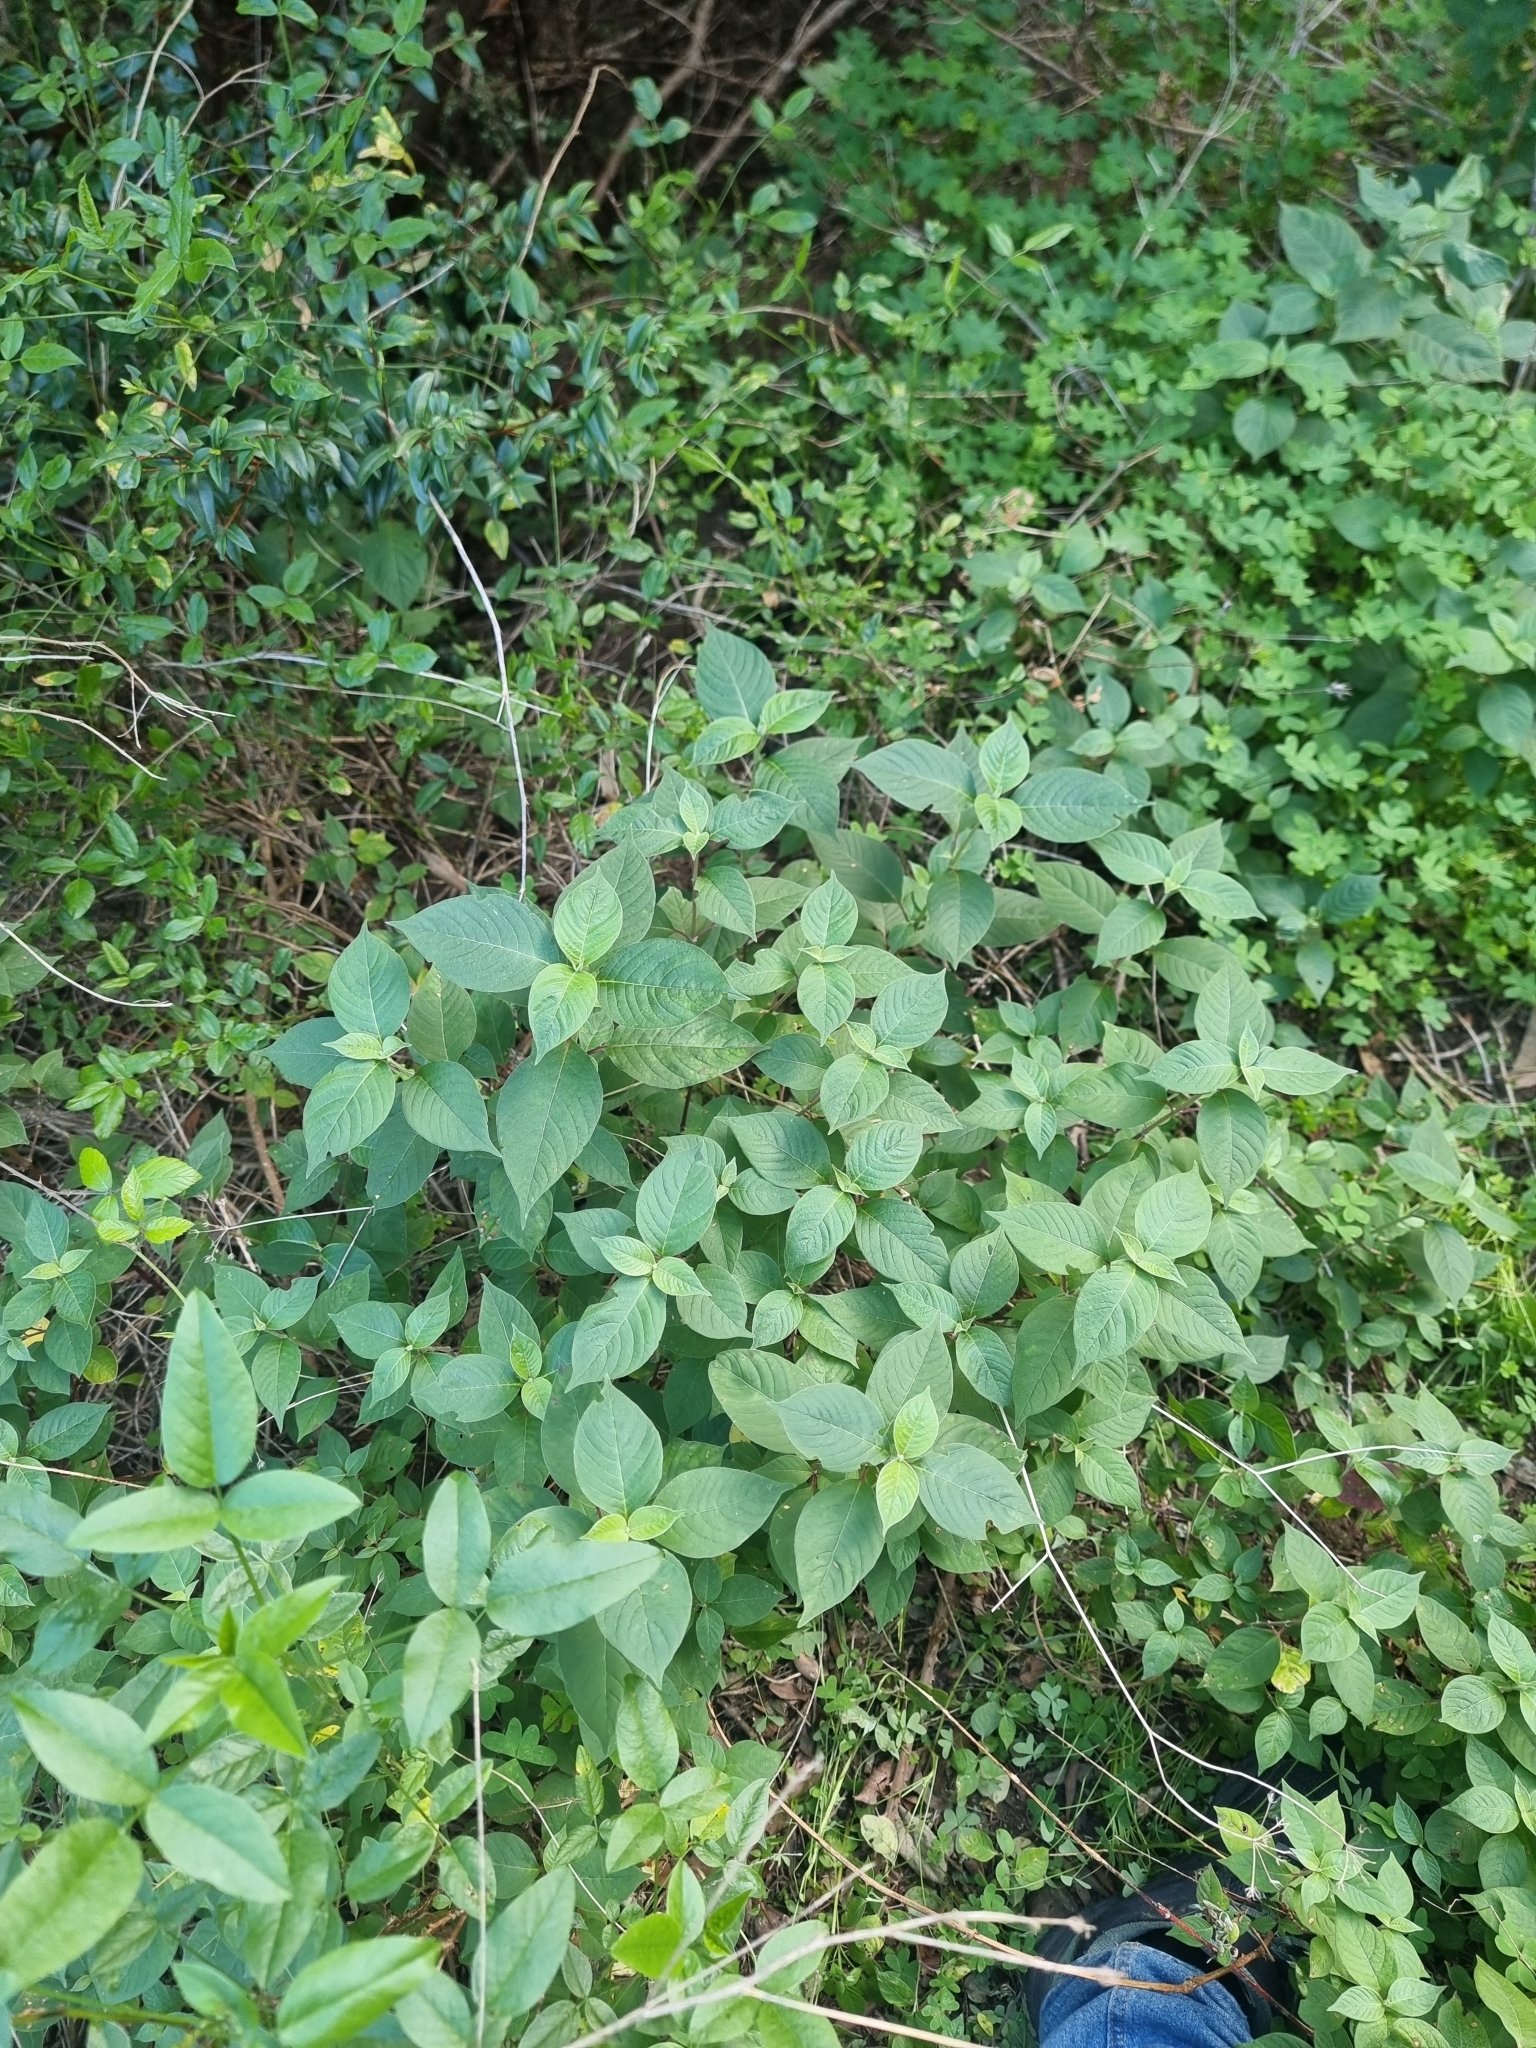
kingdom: Plantae
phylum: Tracheophyta
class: Magnoliopsida
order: Caryophyllales
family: Amaranthaceae
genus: Achyranthes
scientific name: Achyranthes aspera
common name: Devil's horsewhip
